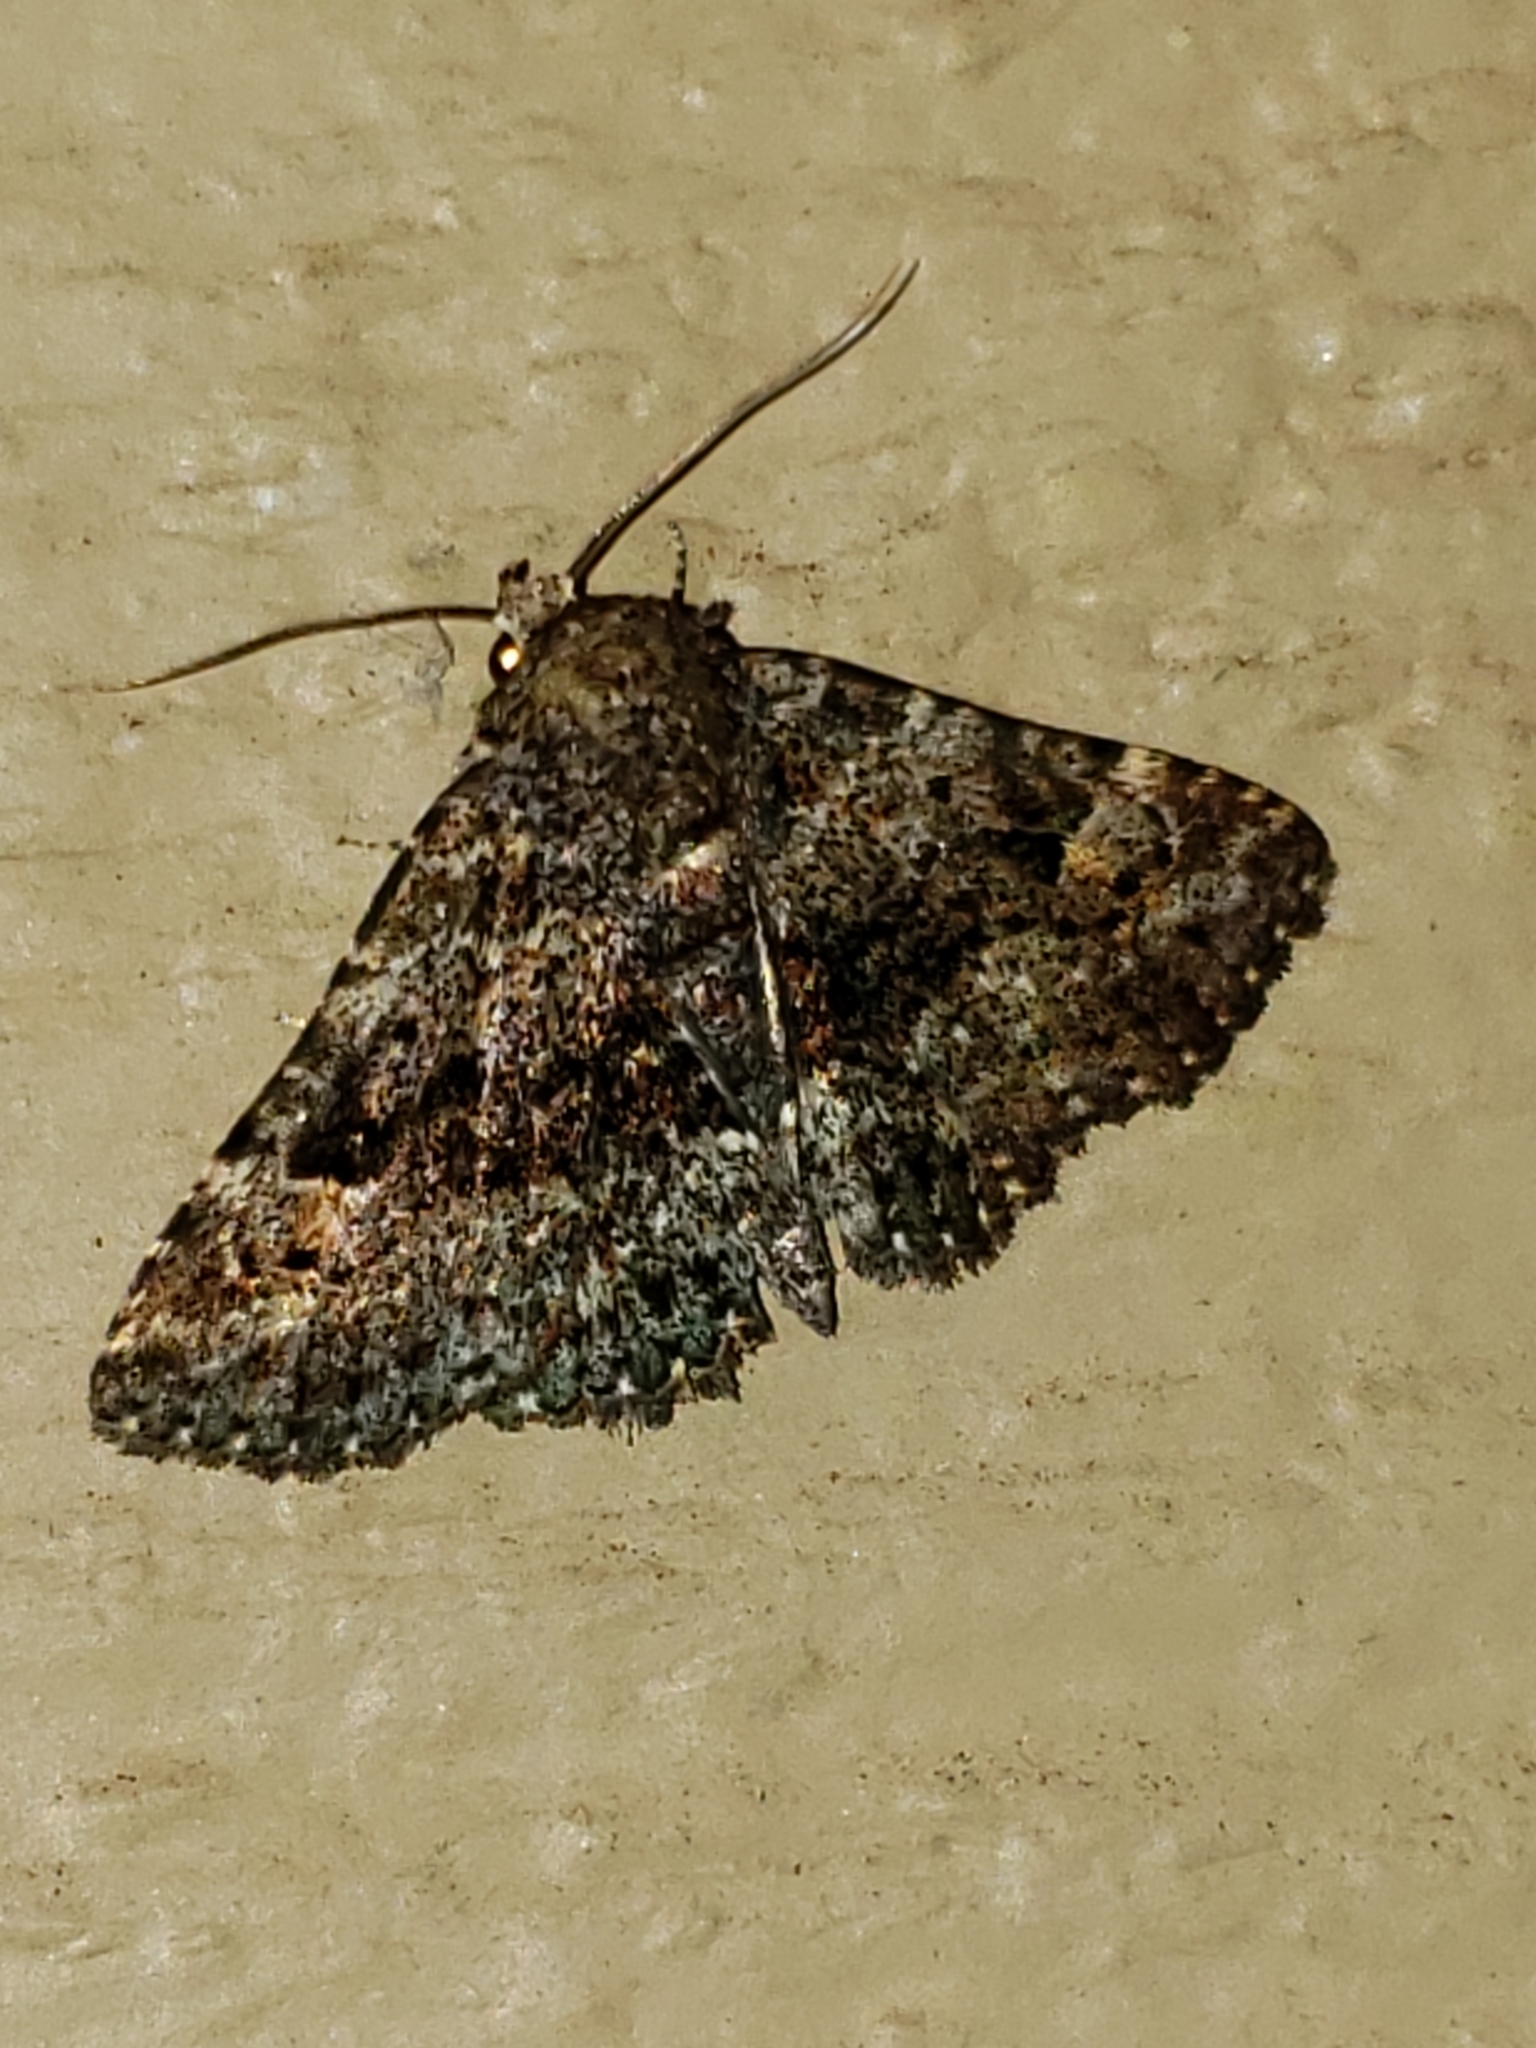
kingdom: Animalia
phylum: Arthropoda
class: Insecta
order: Lepidoptera
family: Erebidae
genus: Metalectra
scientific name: Metalectra discalis
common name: Common fungus moth
